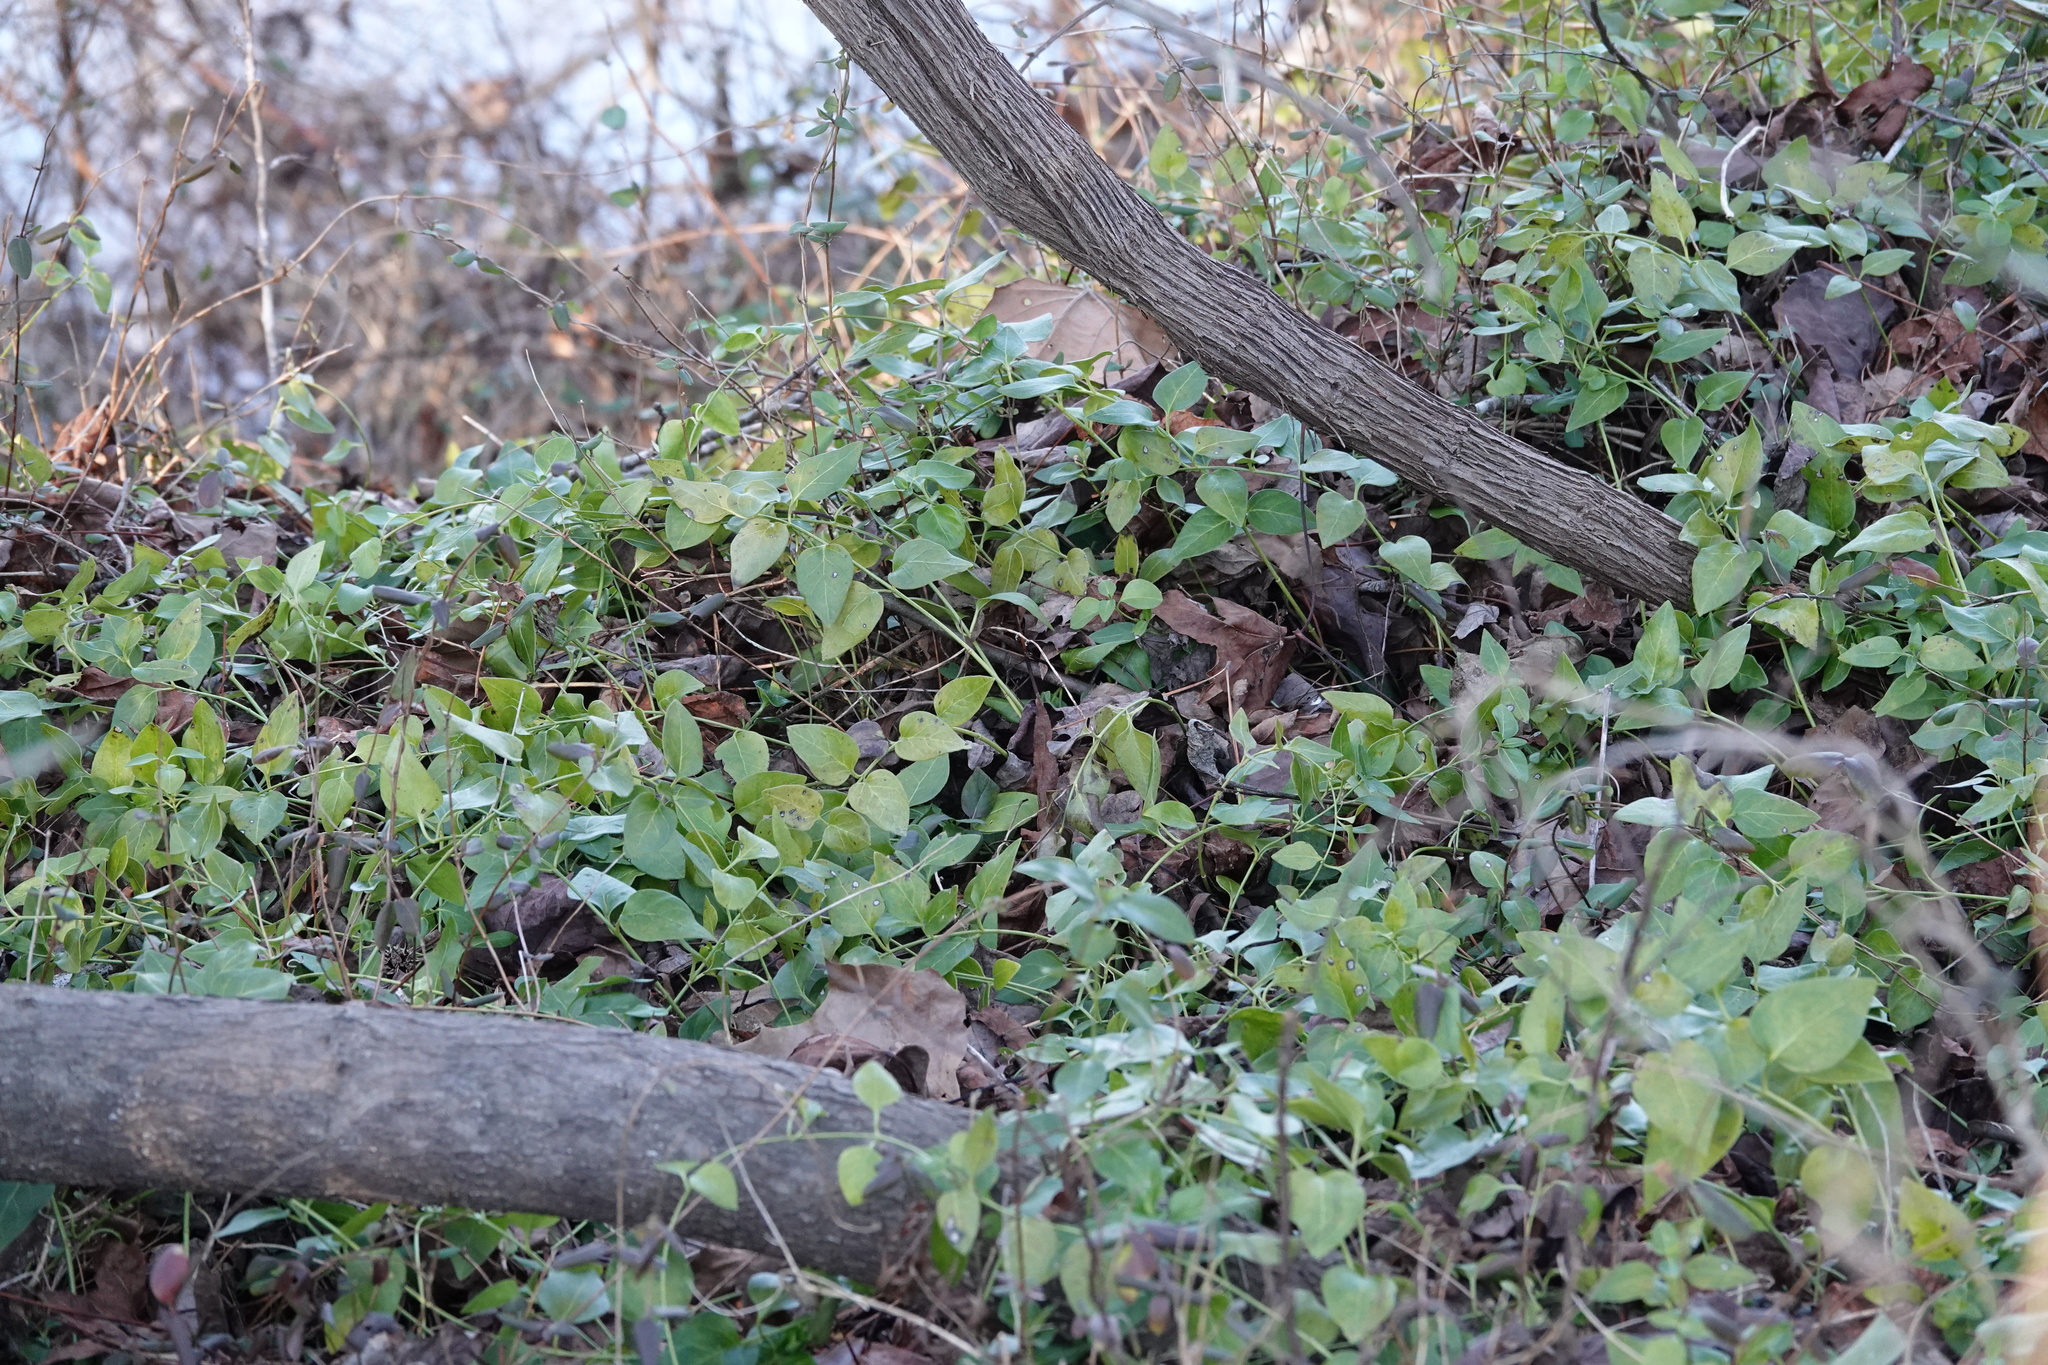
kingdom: Plantae
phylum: Tracheophyta
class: Magnoliopsida
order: Gentianales
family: Apocynaceae
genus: Vinca
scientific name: Vinca major
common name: Greater periwinkle
